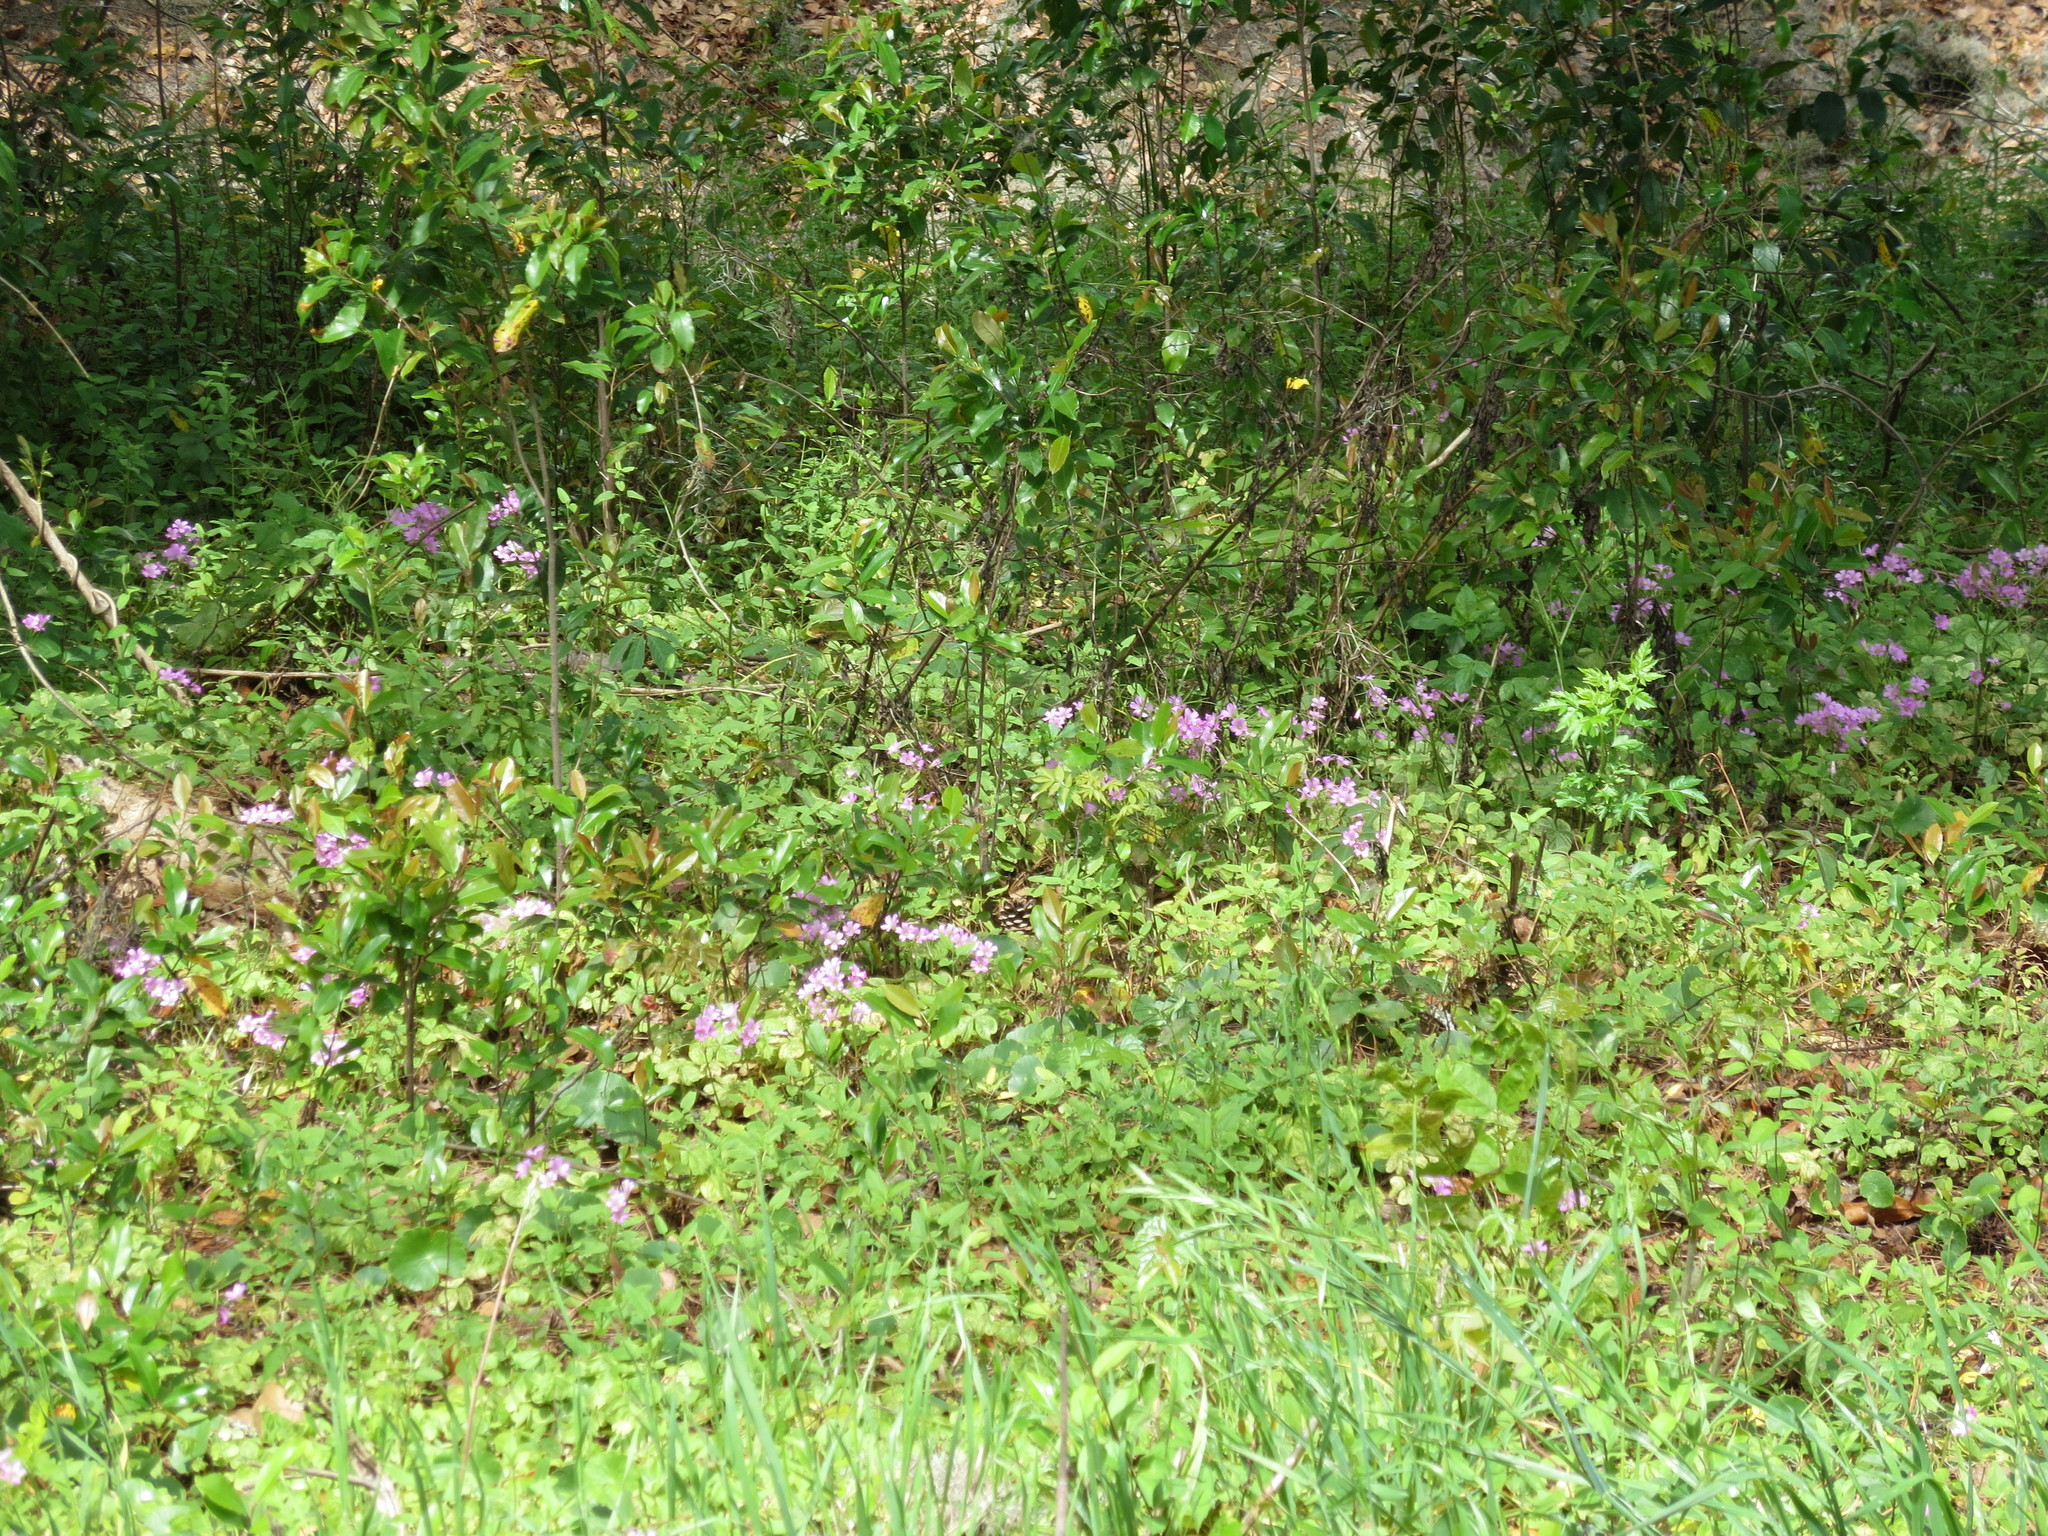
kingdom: Plantae
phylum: Tracheophyta
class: Magnoliopsida
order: Oxalidales
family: Oxalidaceae
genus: Oxalis
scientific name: Oxalis debilis
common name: Large-flowered pink-sorrel
